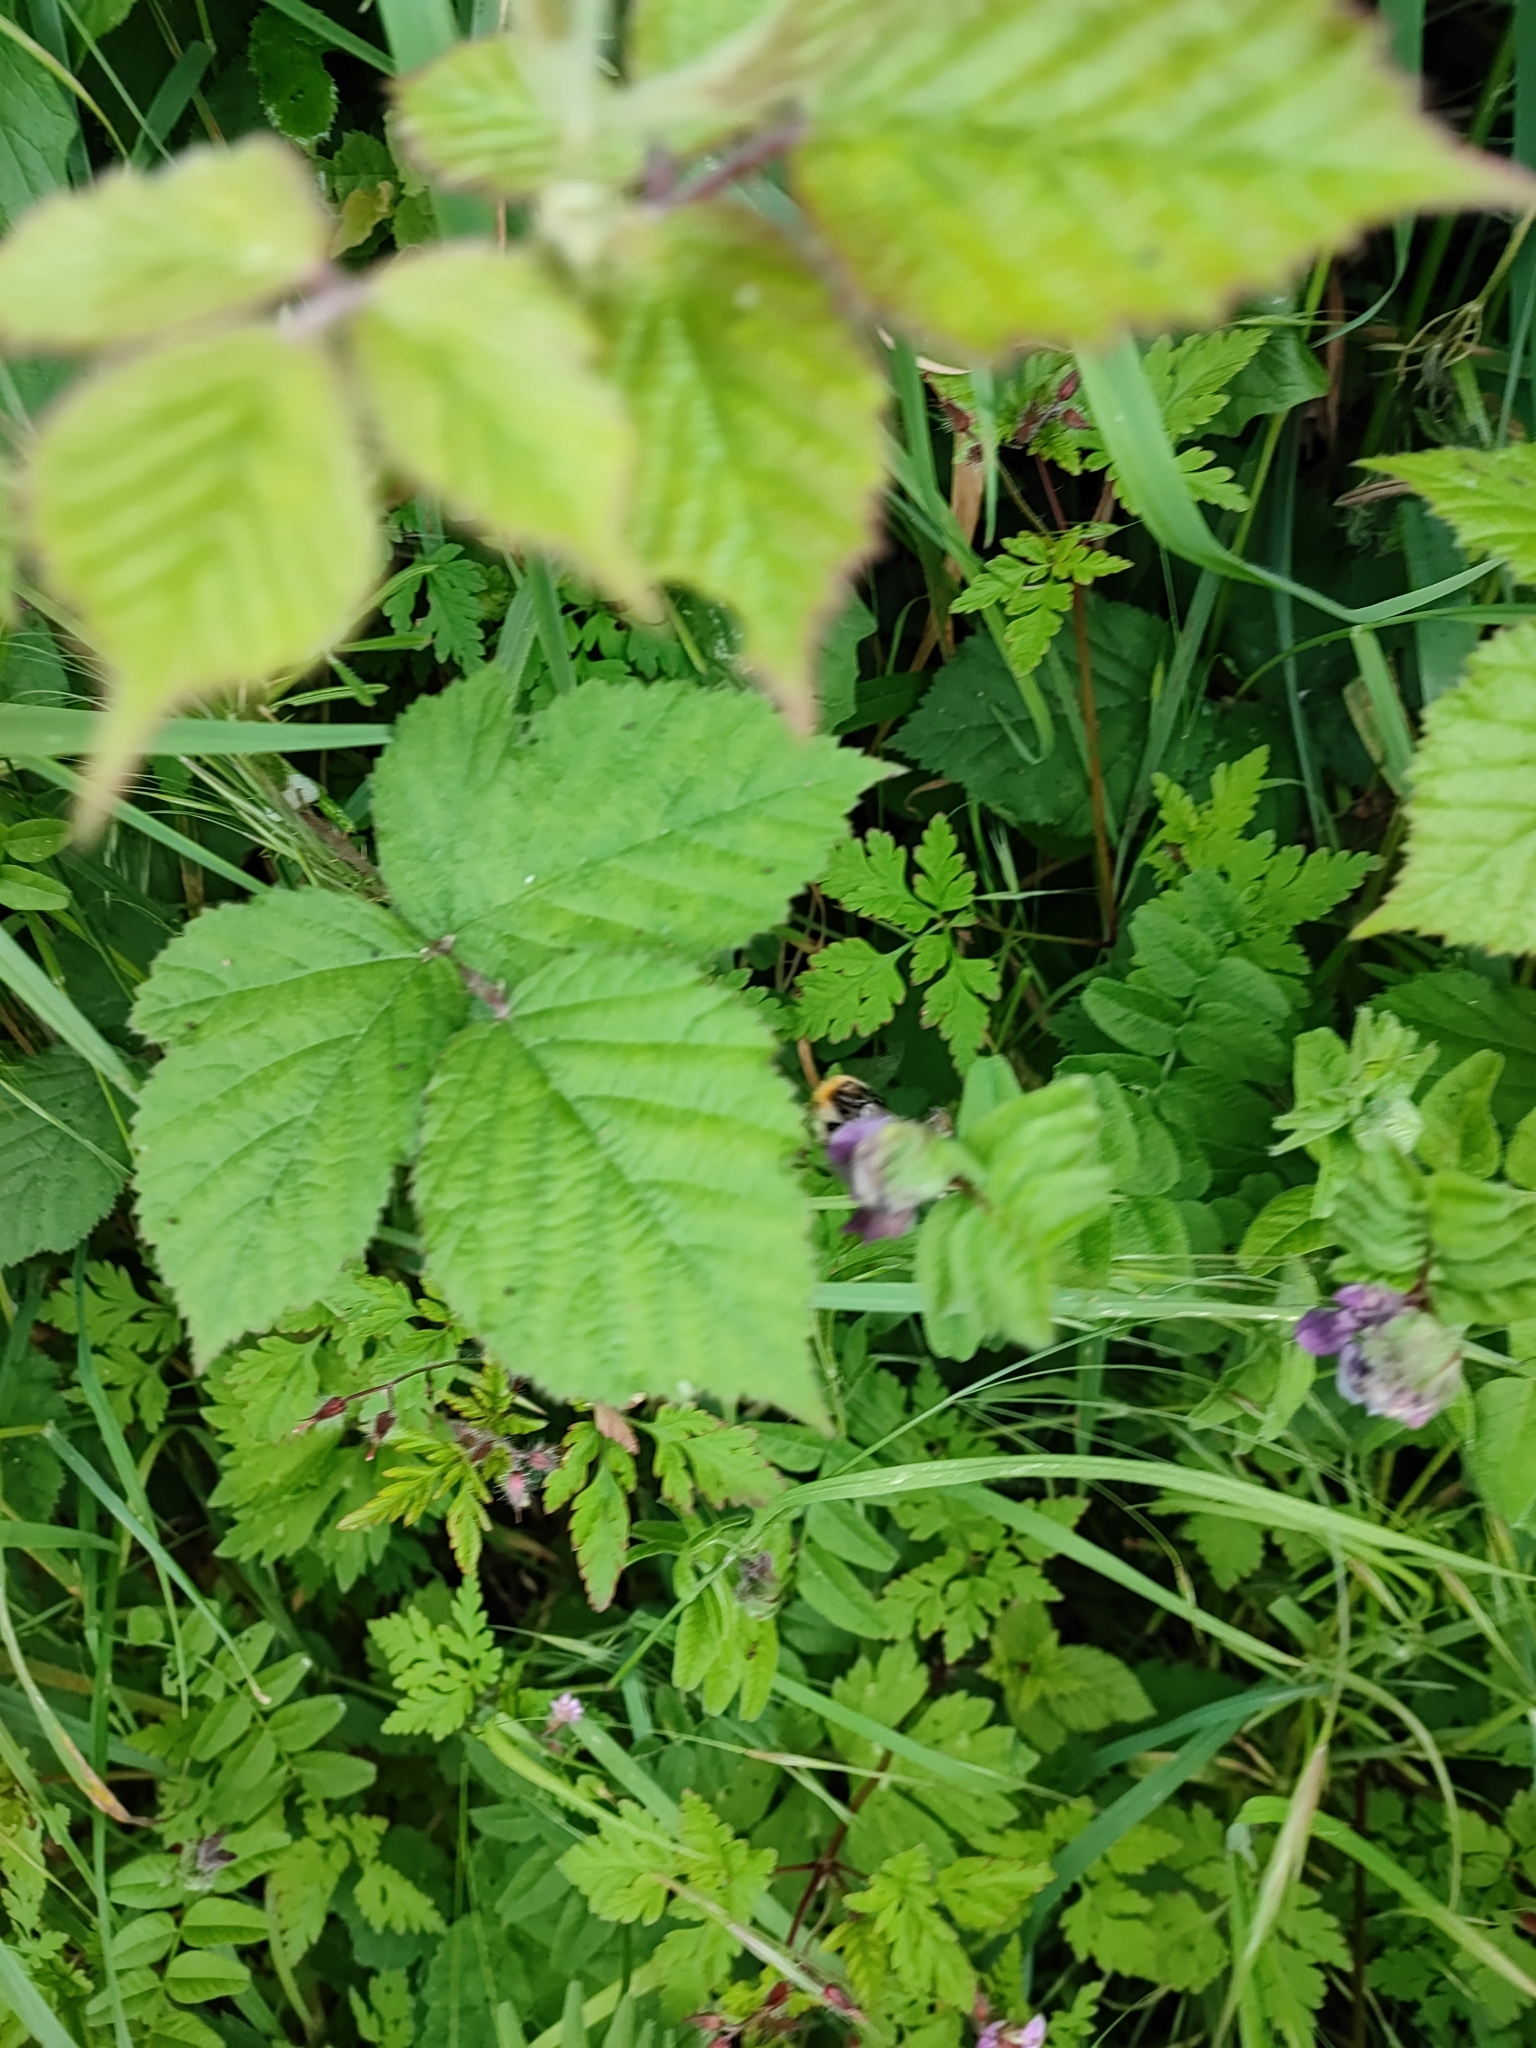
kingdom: Plantae
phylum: Tracheophyta
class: Magnoliopsida
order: Fabales
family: Fabaceae
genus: Vicia
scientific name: Vicia sepium
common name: Bush vetch
